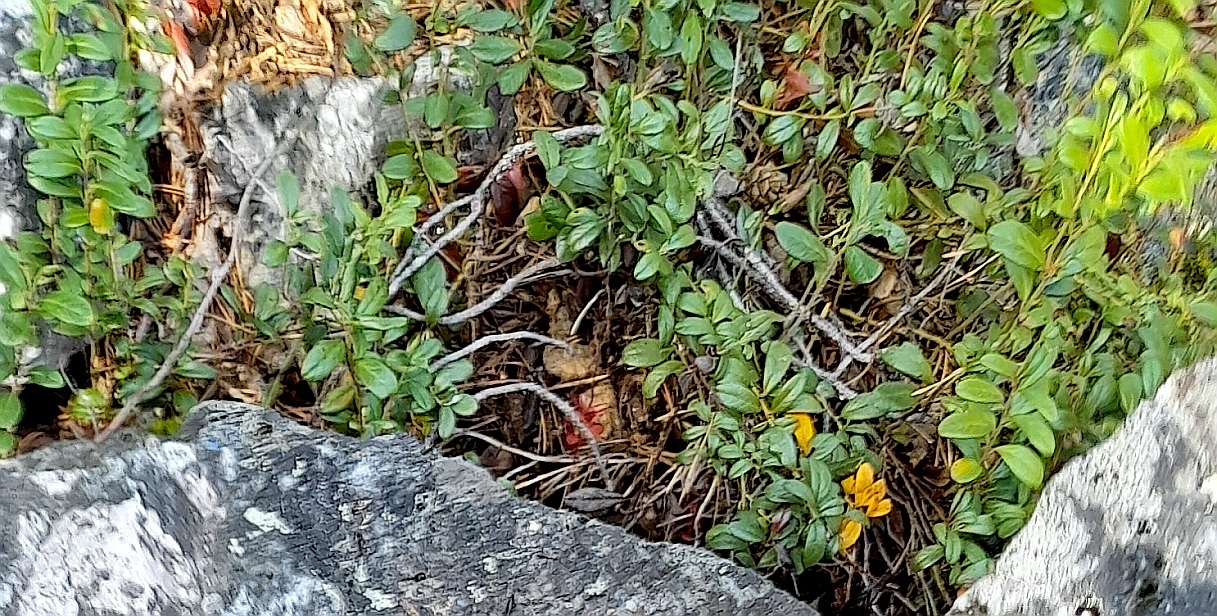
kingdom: Plantae
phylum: Tracheophyta
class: Magnoliopsida
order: Ericales
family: Ericaceae
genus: Vaccinium
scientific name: Vaccinium vitis-idaea
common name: Cowberry
